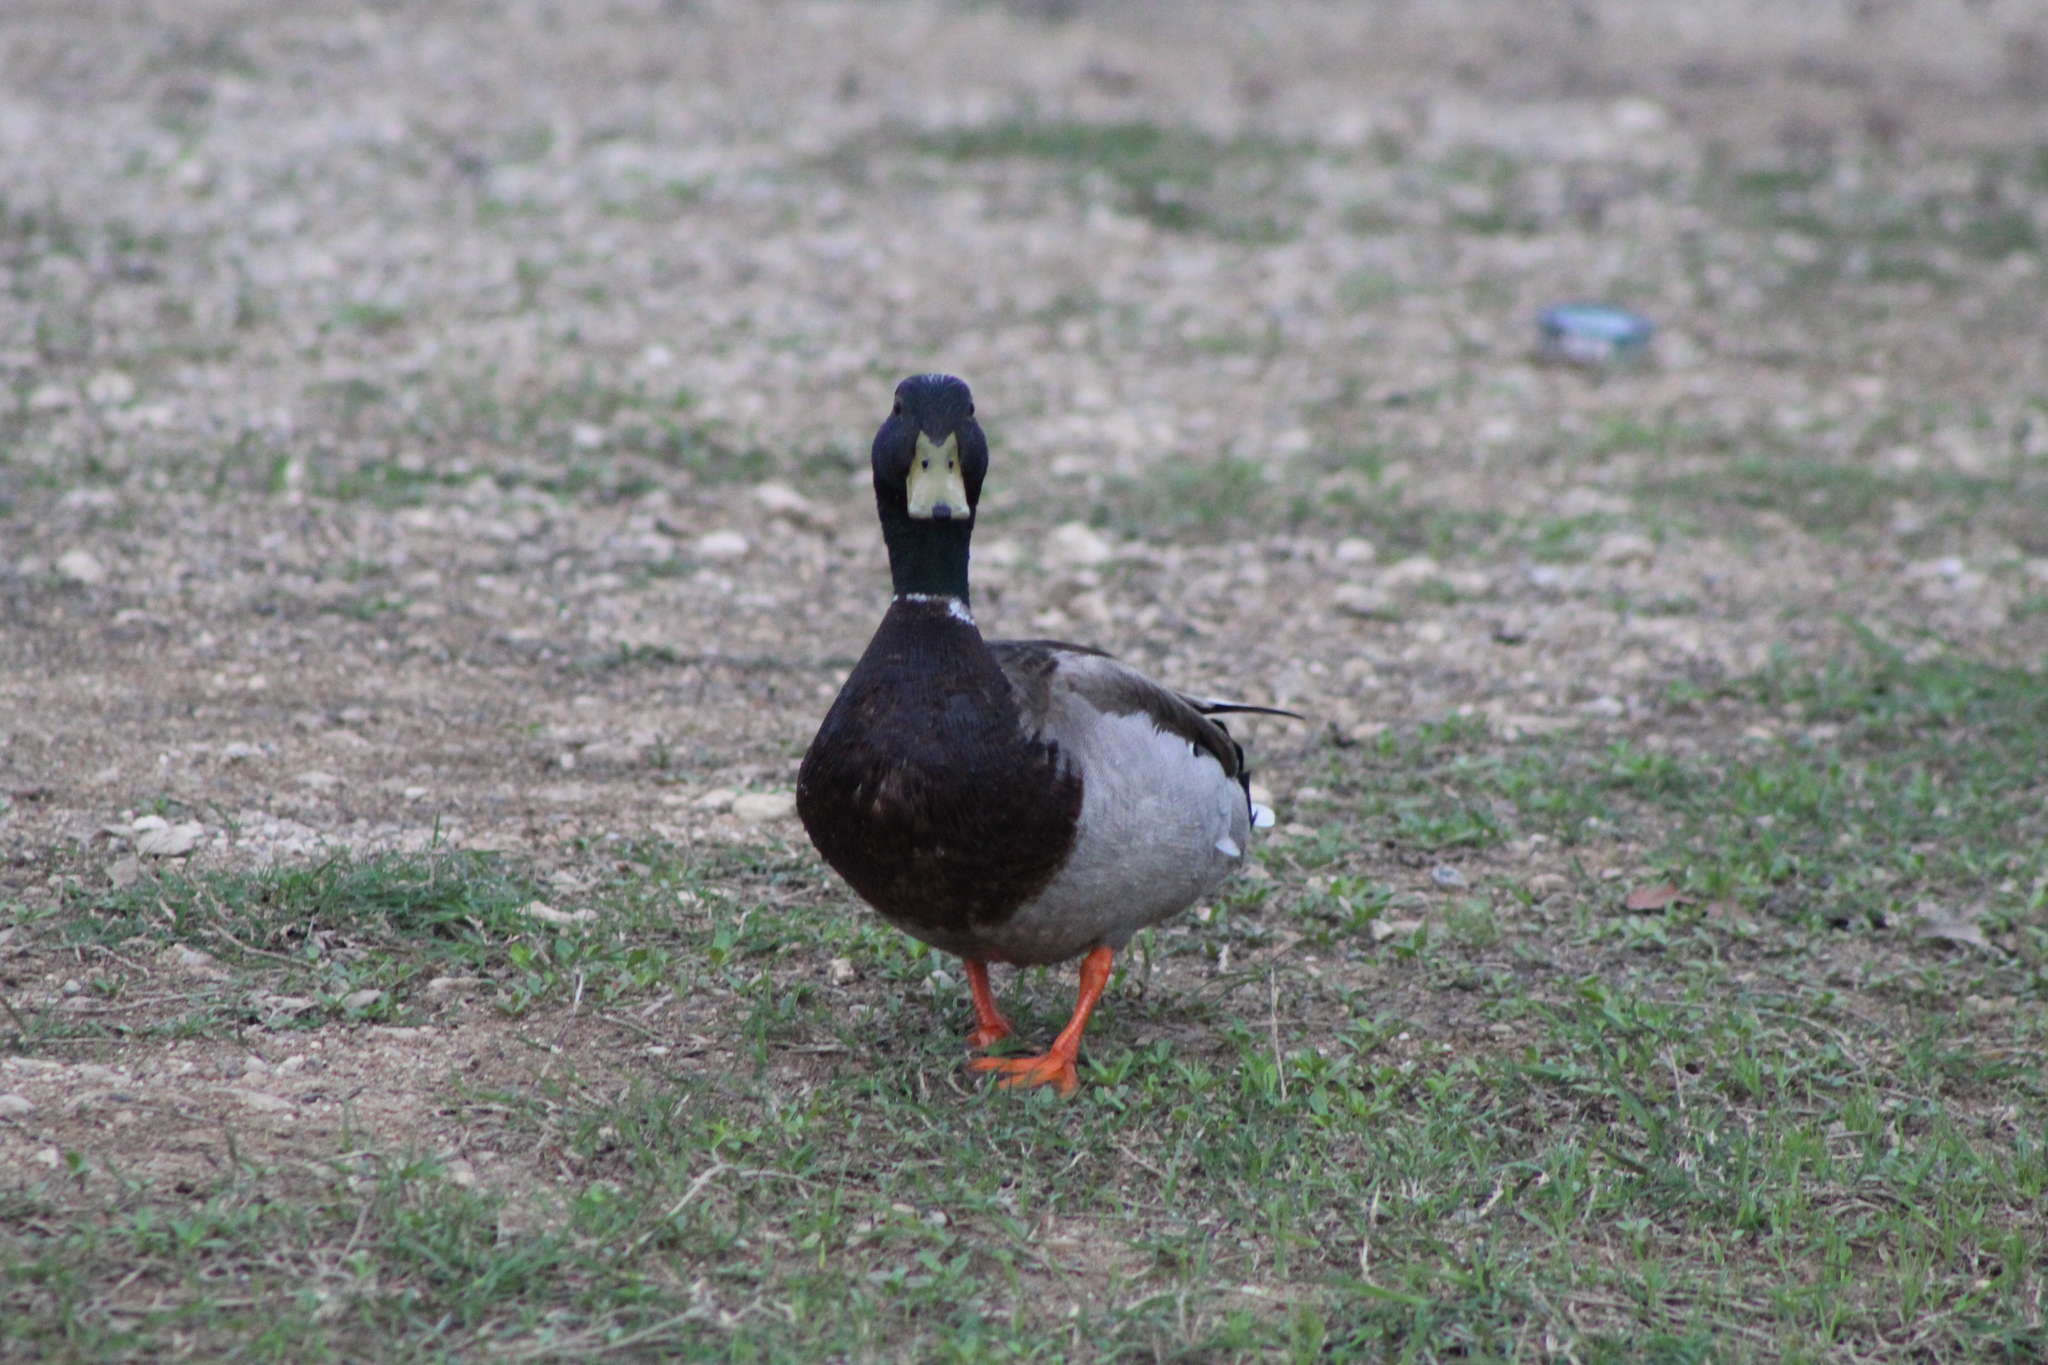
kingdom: Animalia
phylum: Chordata
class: Aves
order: Anseriformes
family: Anatidae
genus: Anas
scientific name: Anas platyrhynchos
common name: Mallard
